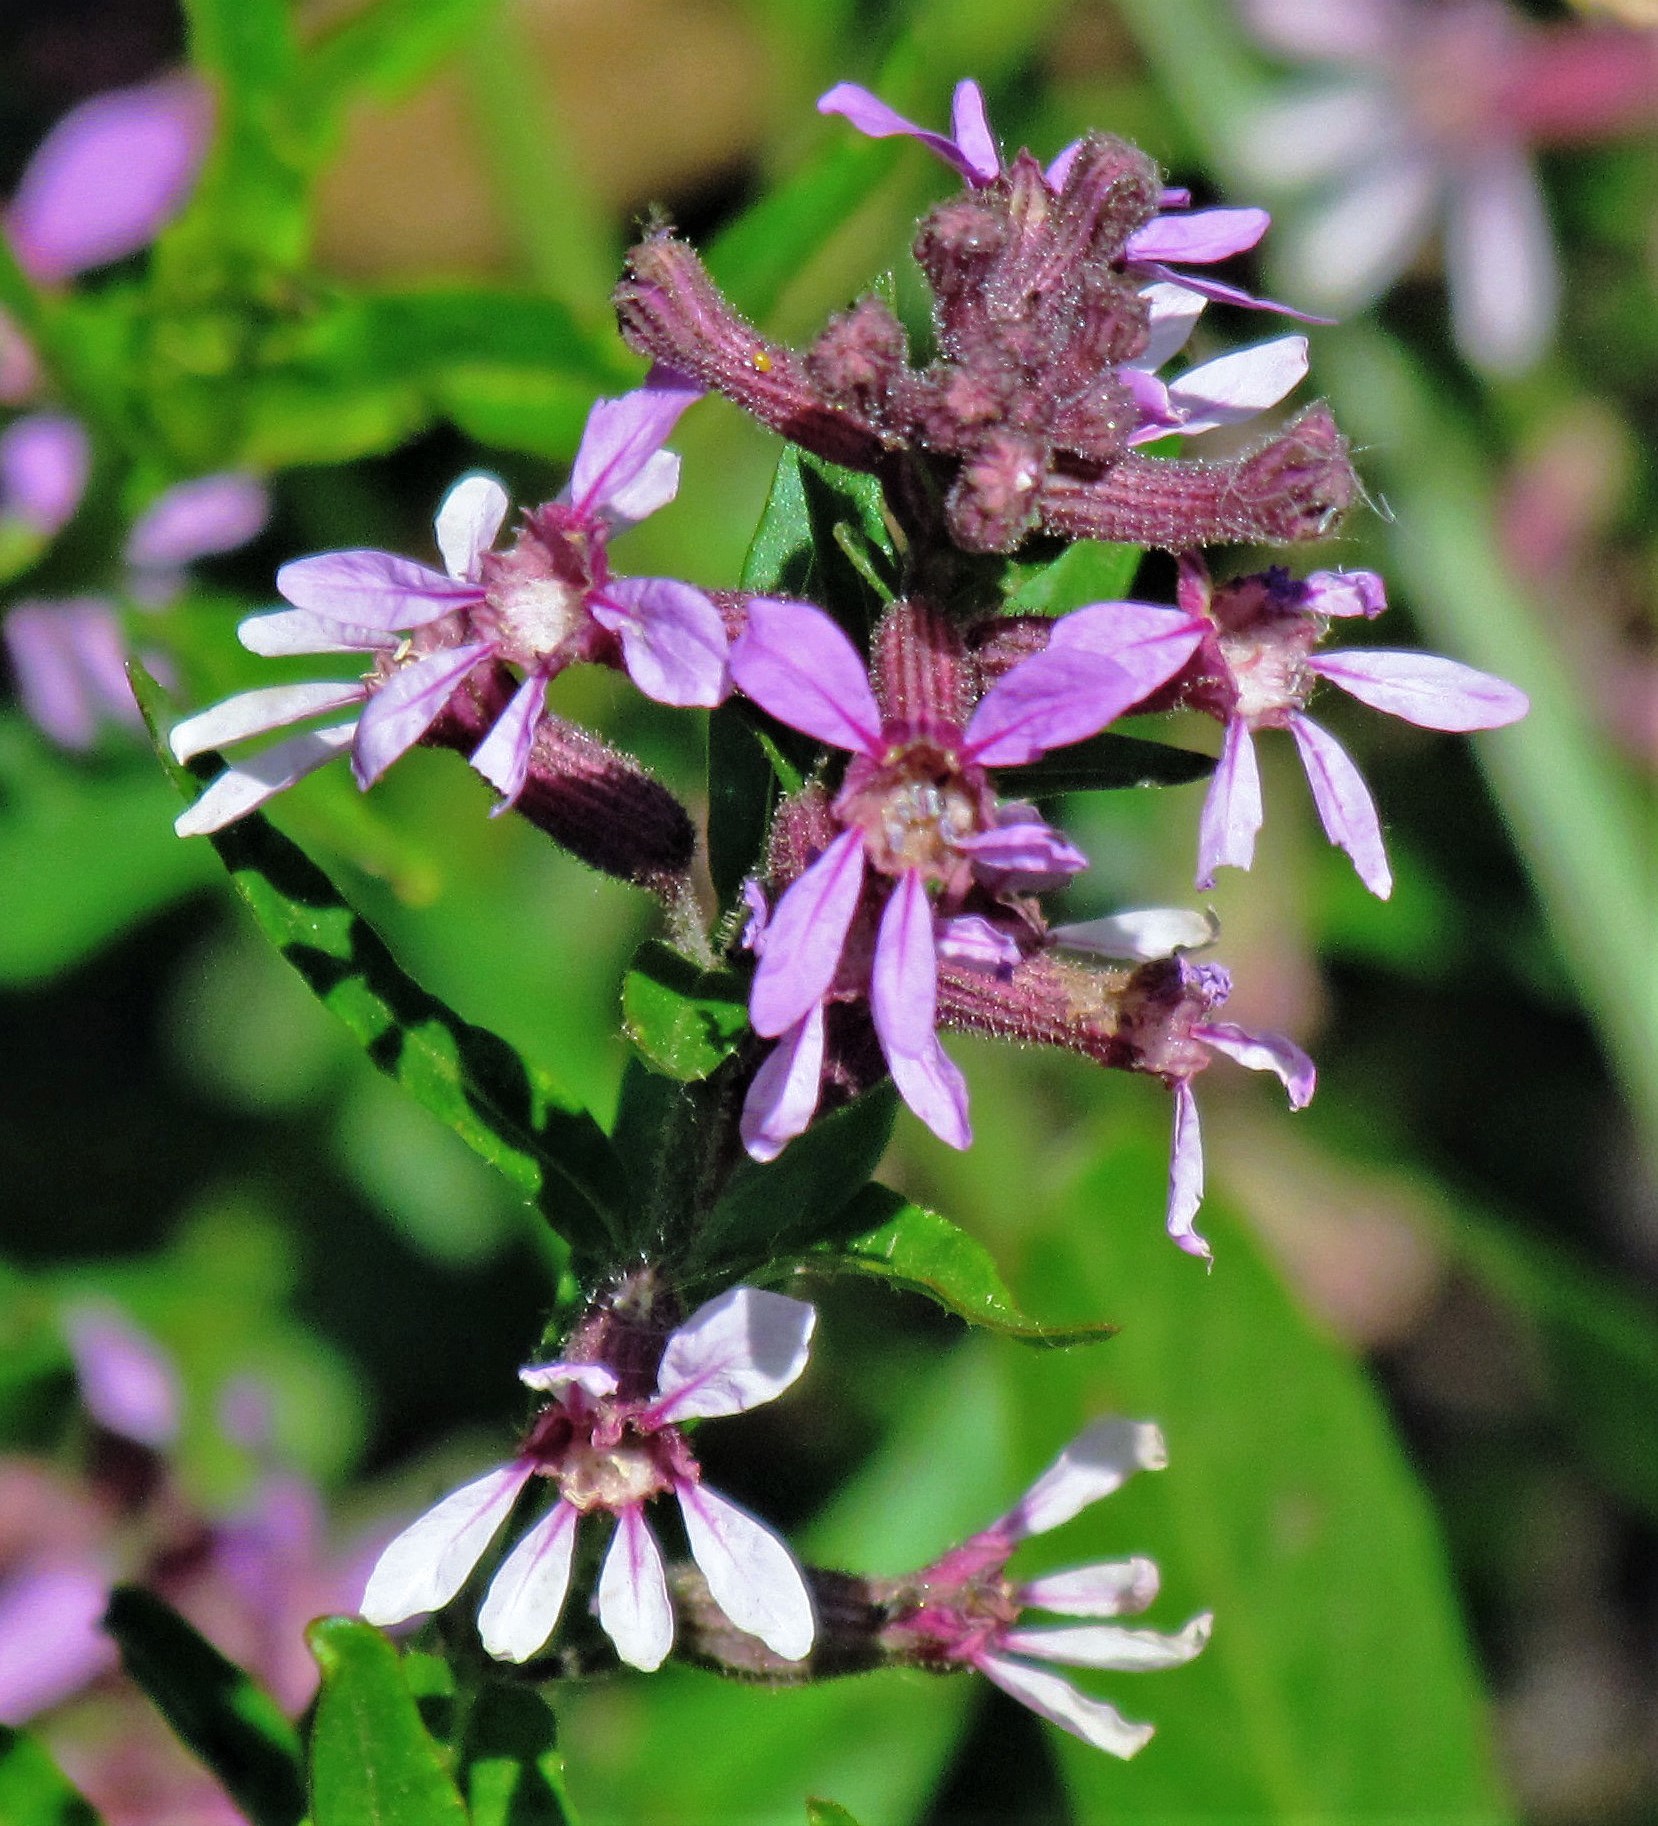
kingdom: Plantae
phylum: Tracheophyta
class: Magnoliopsida
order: Myrtales
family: Lythraceae
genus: Cuphea
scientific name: Cuphea fruticosa
